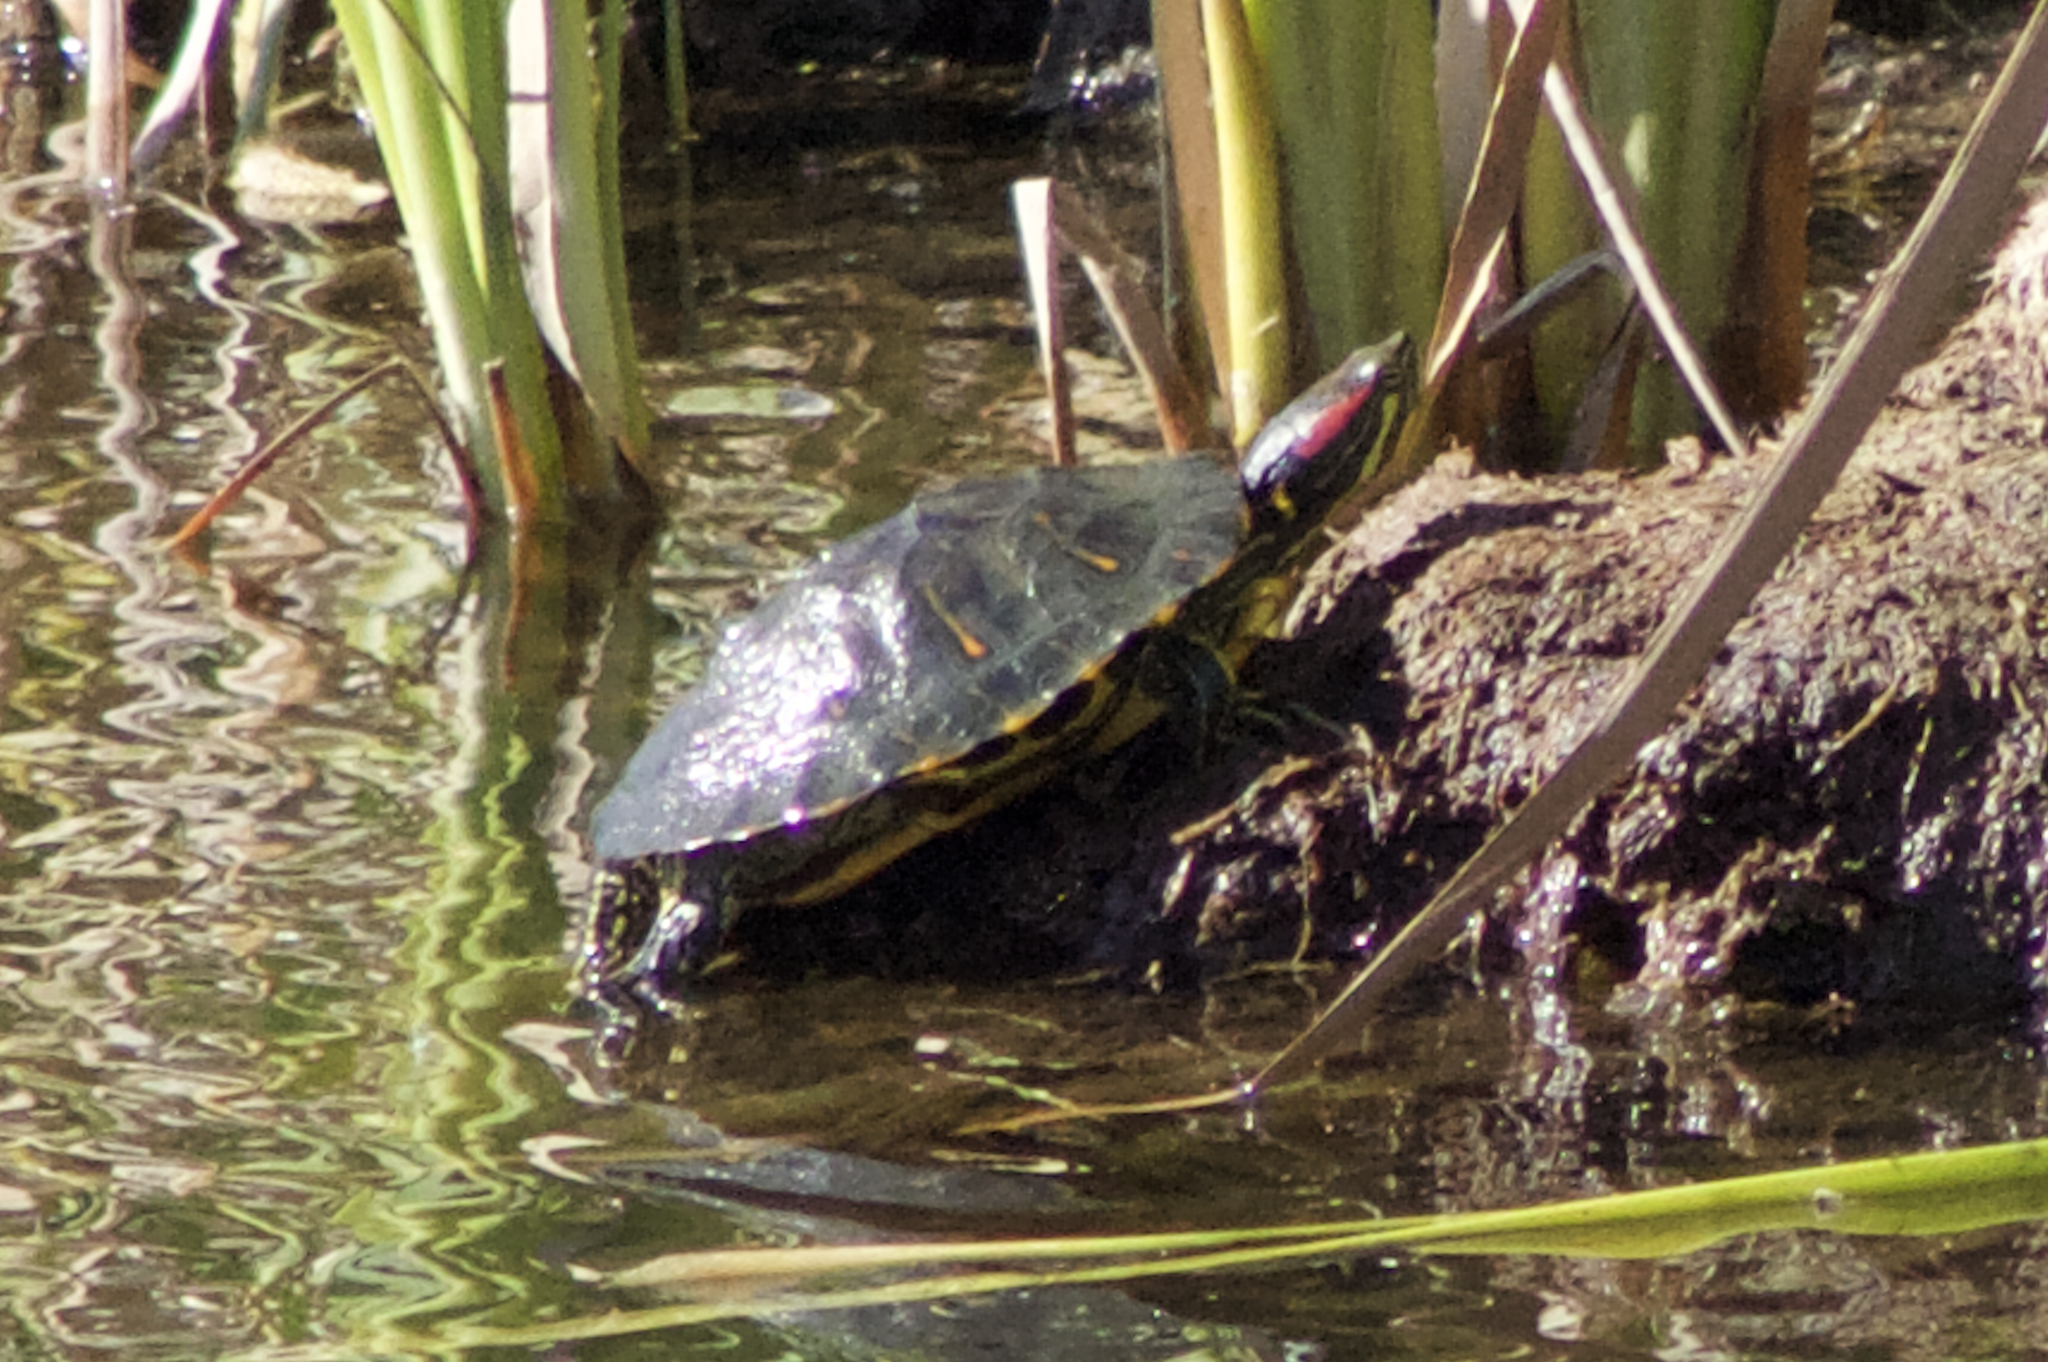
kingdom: Animalia
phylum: Chordata
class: Testudines
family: Emydidae
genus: Trachemys
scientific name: Trachemys scripta
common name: Slider
